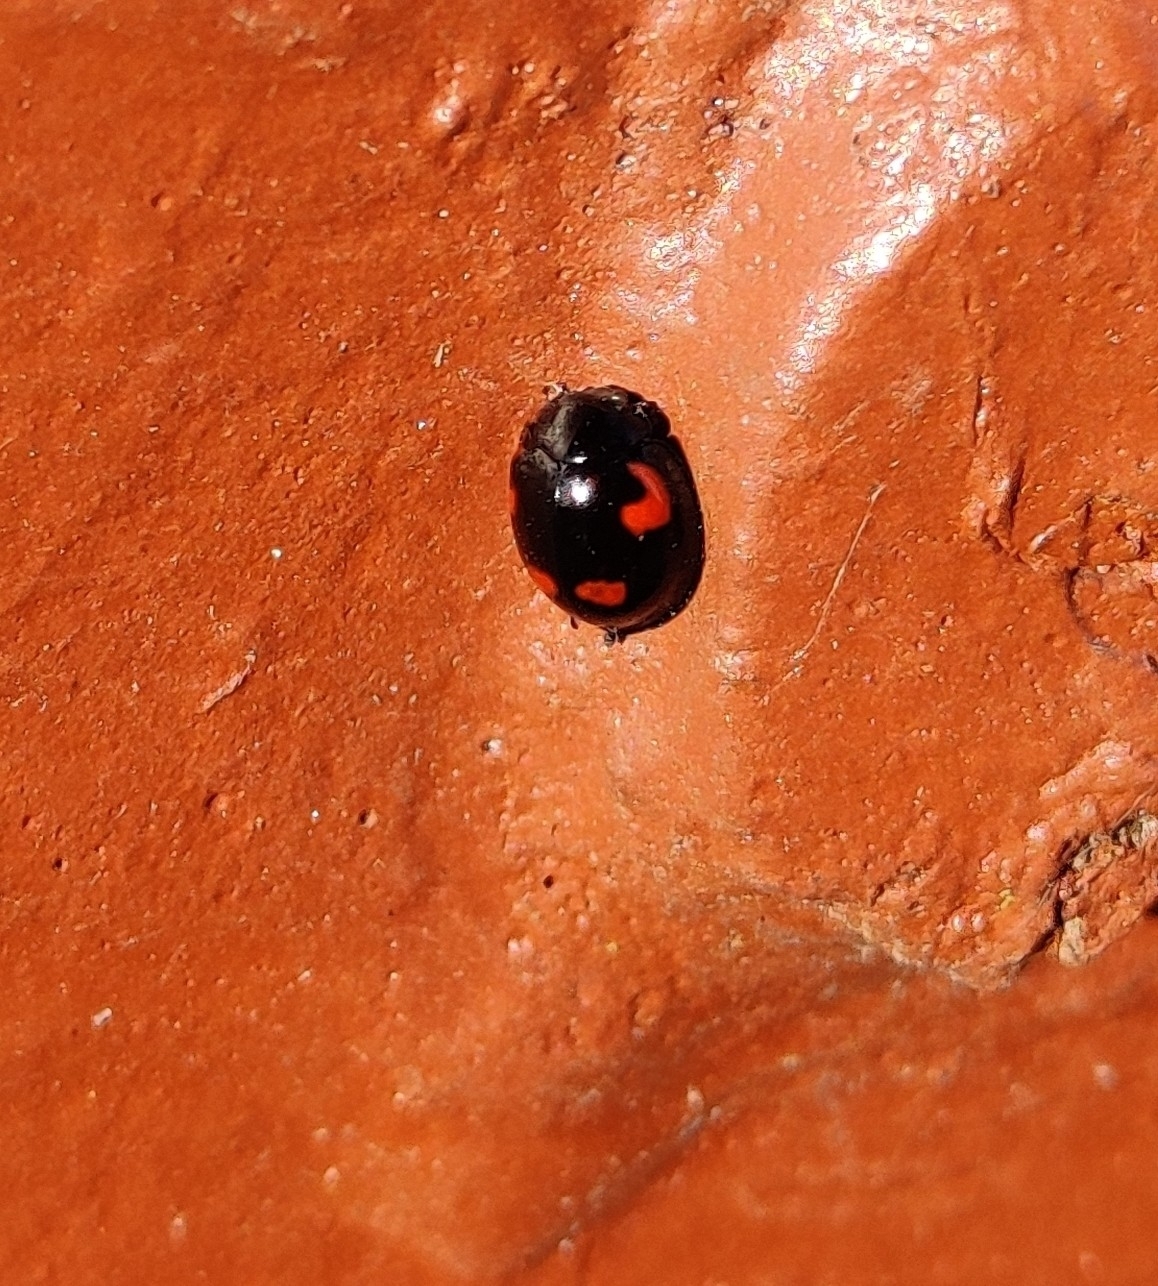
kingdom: Animalia
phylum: Arthropoda
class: Insecta
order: Coleoptera
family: Coccinellidae
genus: Brumus
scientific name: Brumus quadripustulatus
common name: Ladybird beetle
